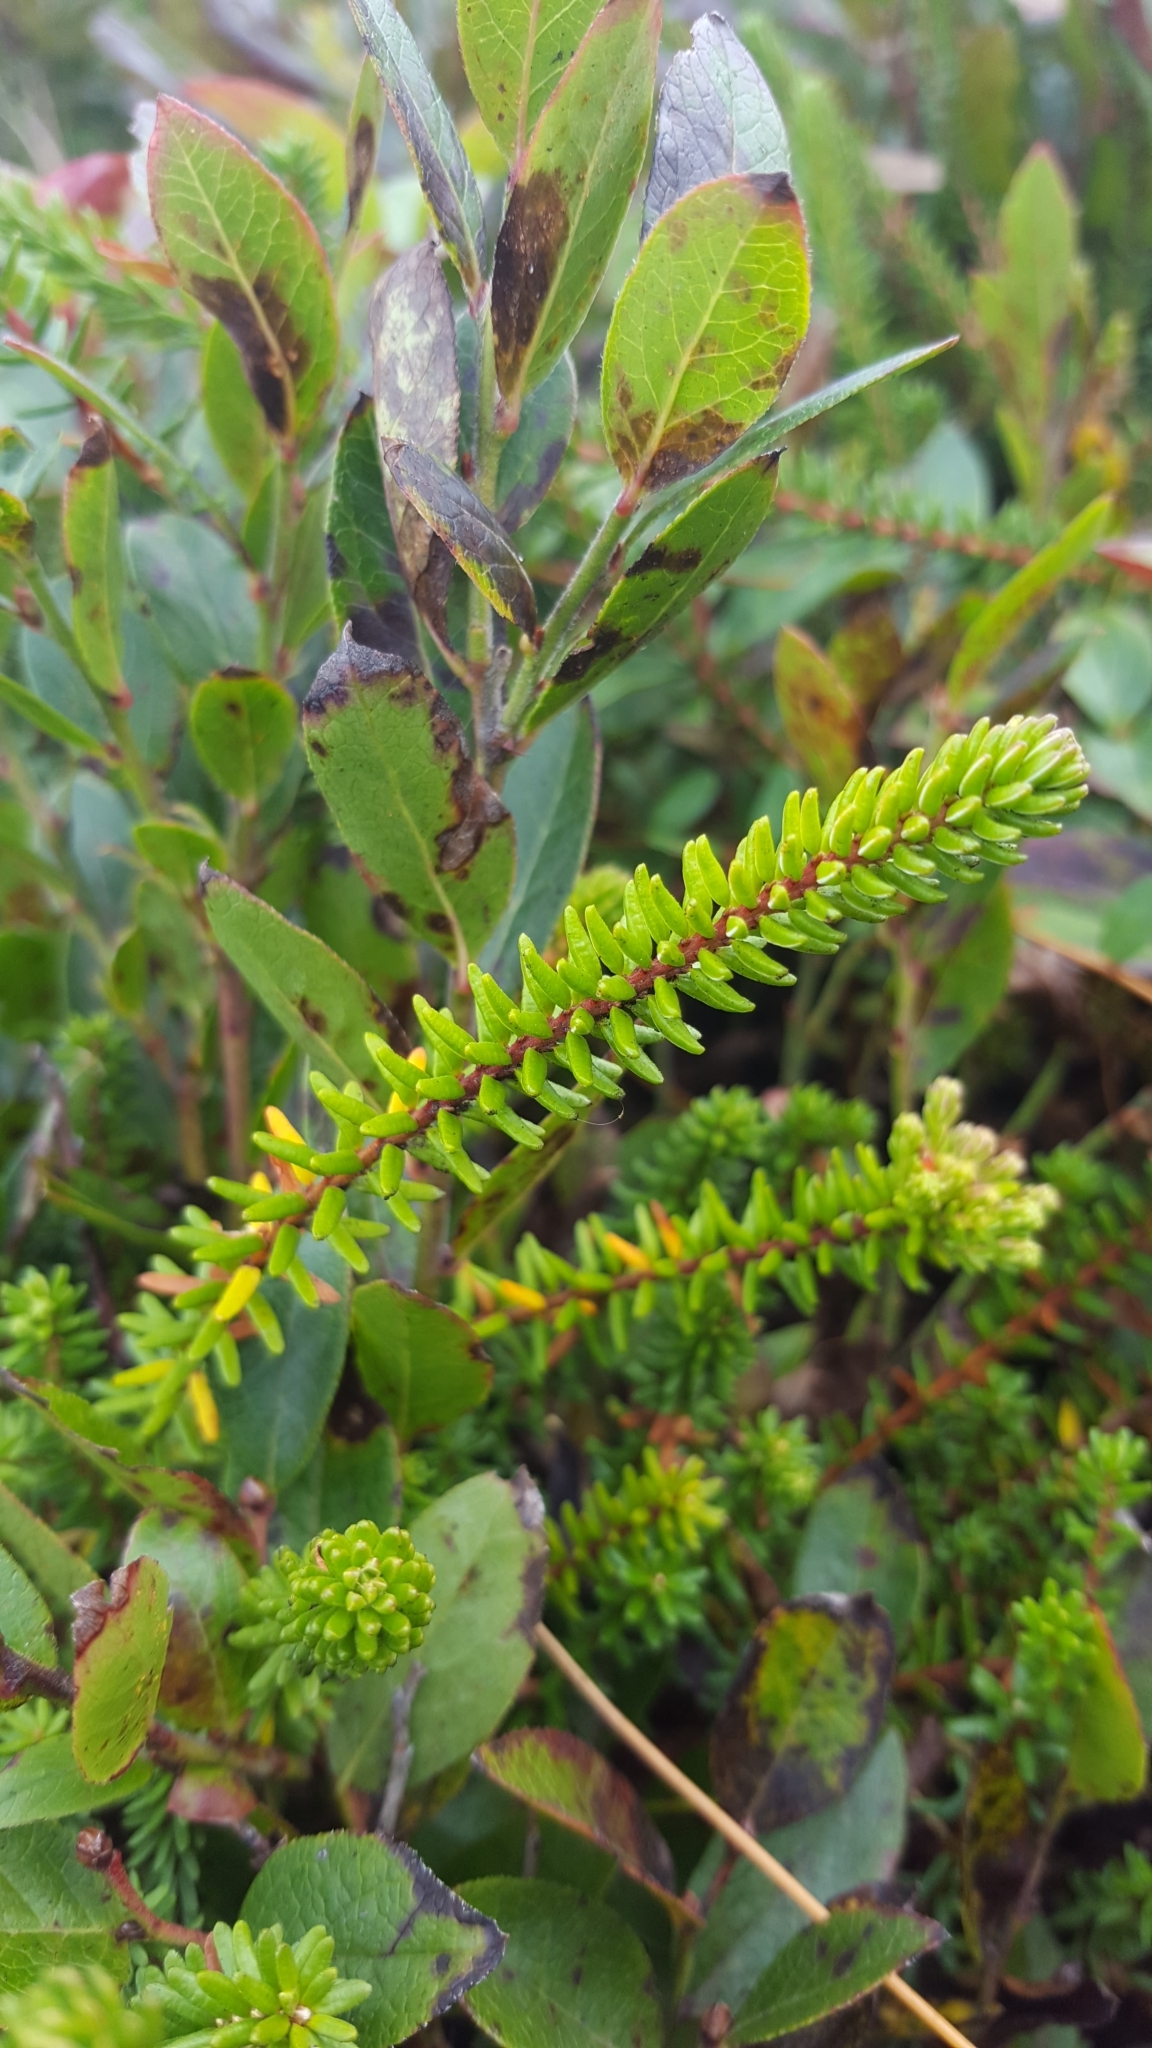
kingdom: Plantae
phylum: Tracheophyta
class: Magnoliopsida
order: Ericales
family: Ericaceae
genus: Empetrum
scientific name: Empetrum nigrum
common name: Black crowberry
